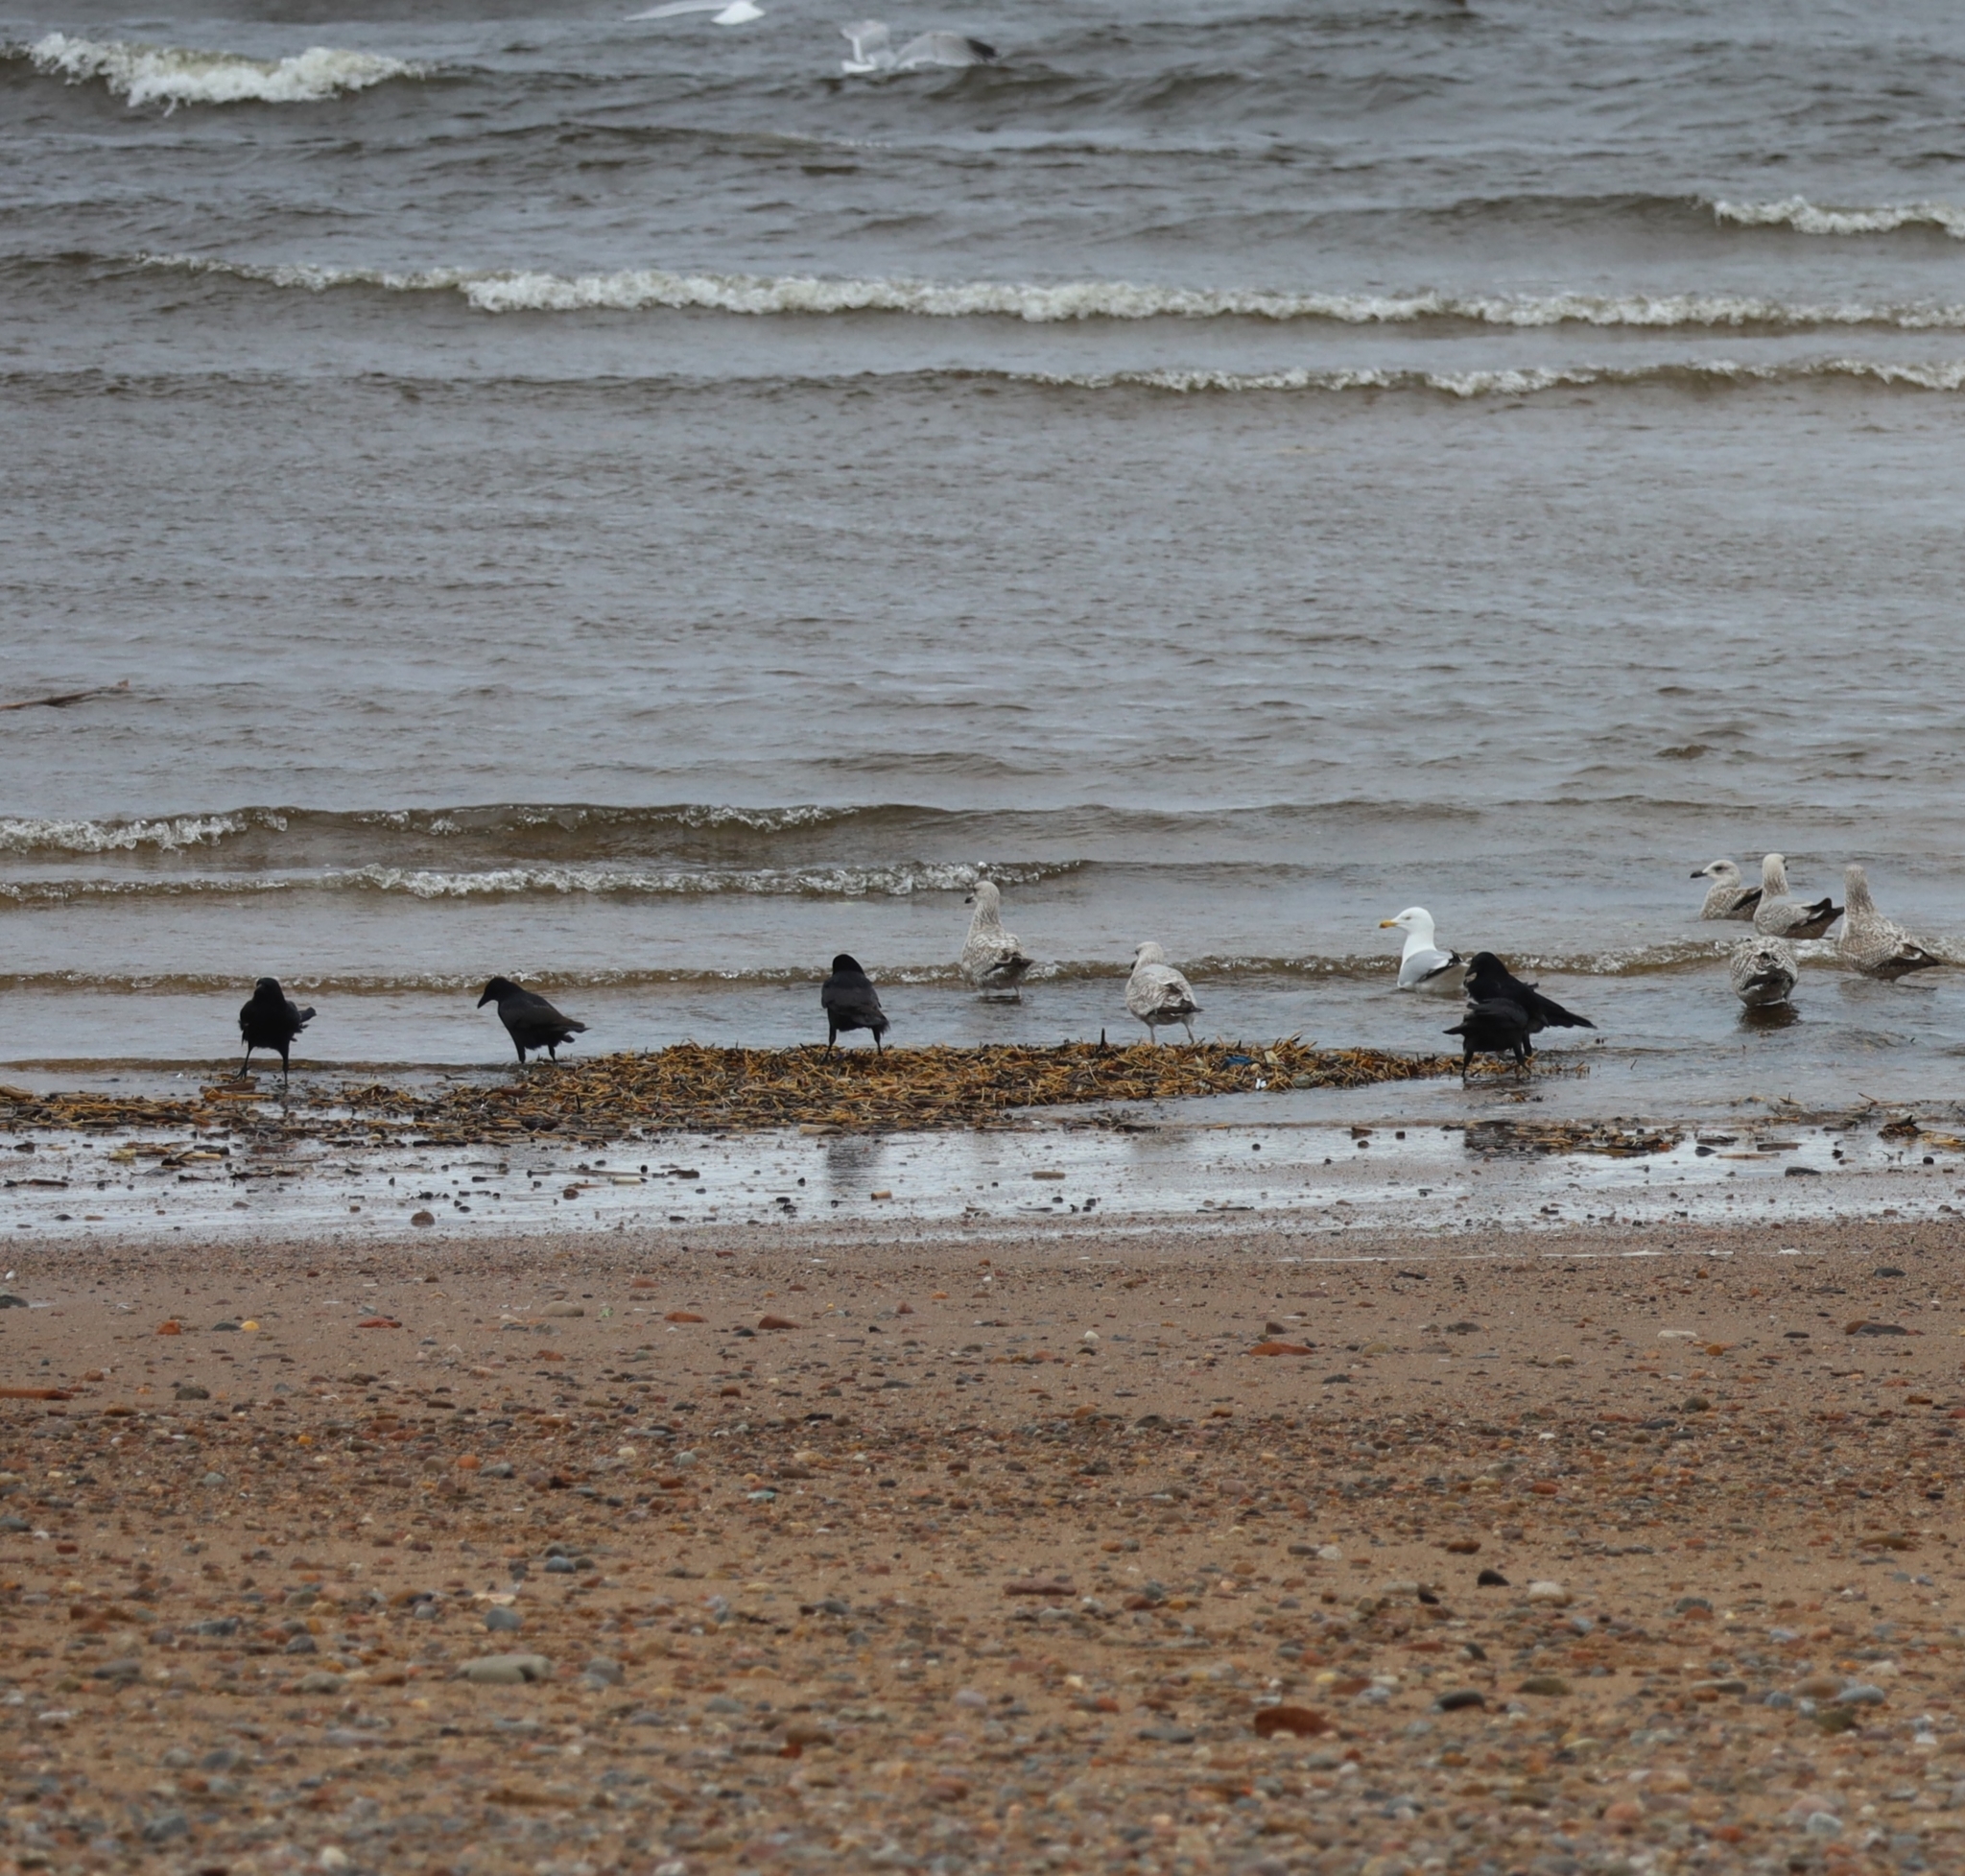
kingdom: Animalia
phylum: Chordata
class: Aves
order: Passeriformes
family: Corvidae
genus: Corvus
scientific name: Corvus corone
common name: Carrion crow
